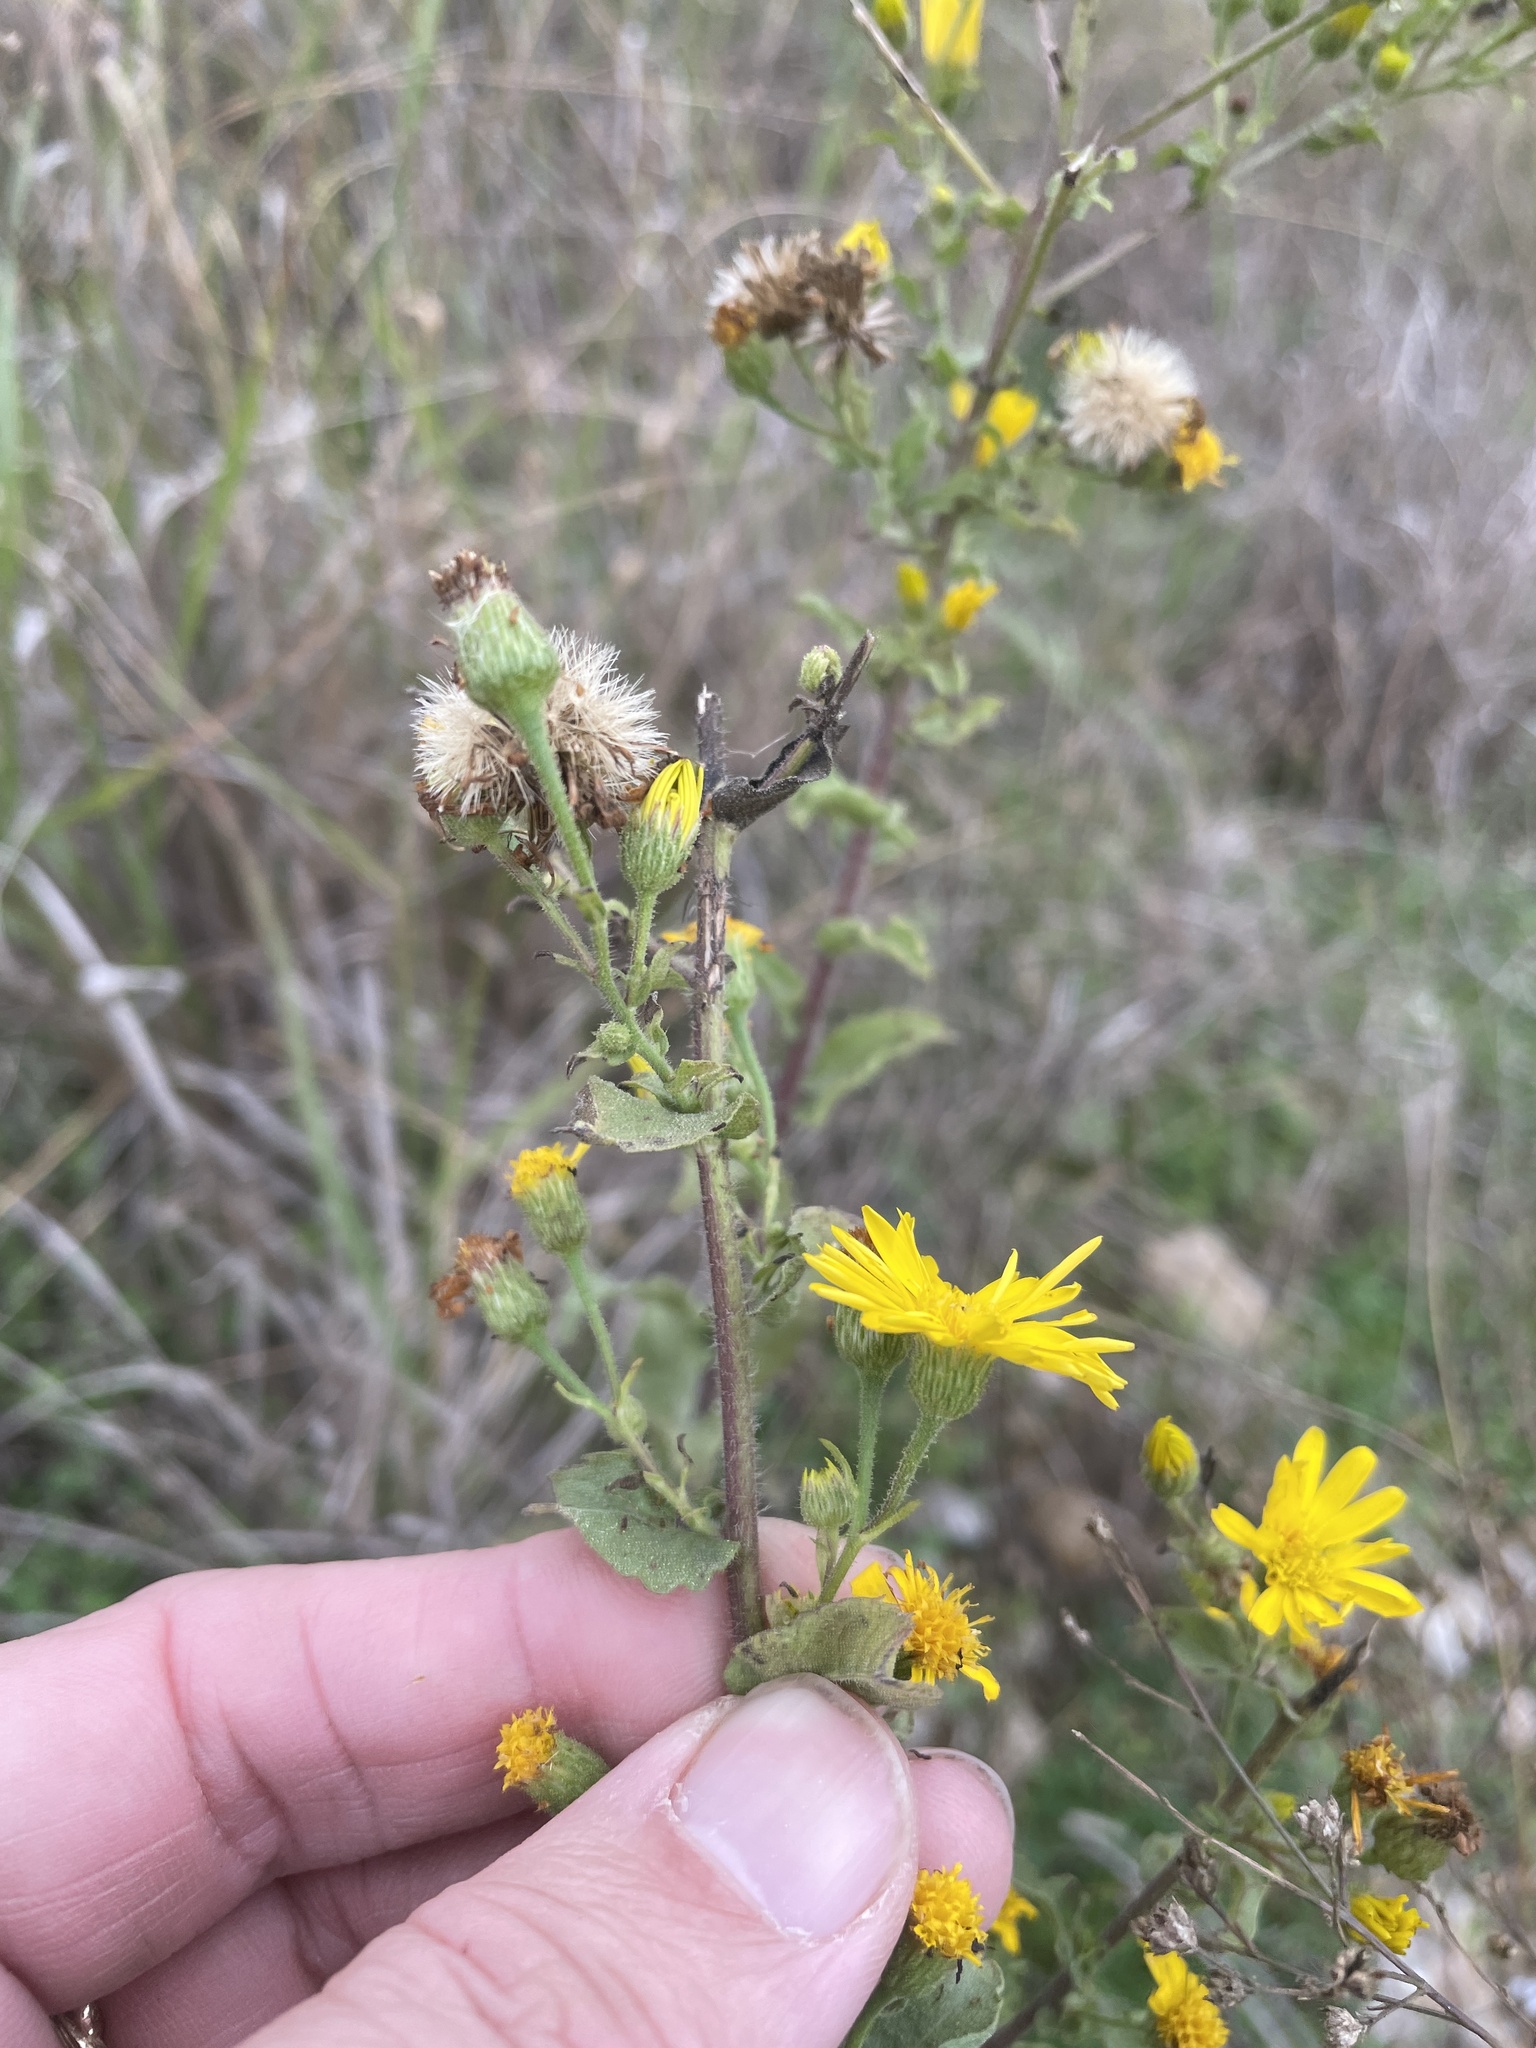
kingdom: Plantae
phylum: Tracheophyta
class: Magnoliopsida
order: Asterales
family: Asteraceae
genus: Heterotheca
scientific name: Heterotheca subaxillaris
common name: Camphorweed
